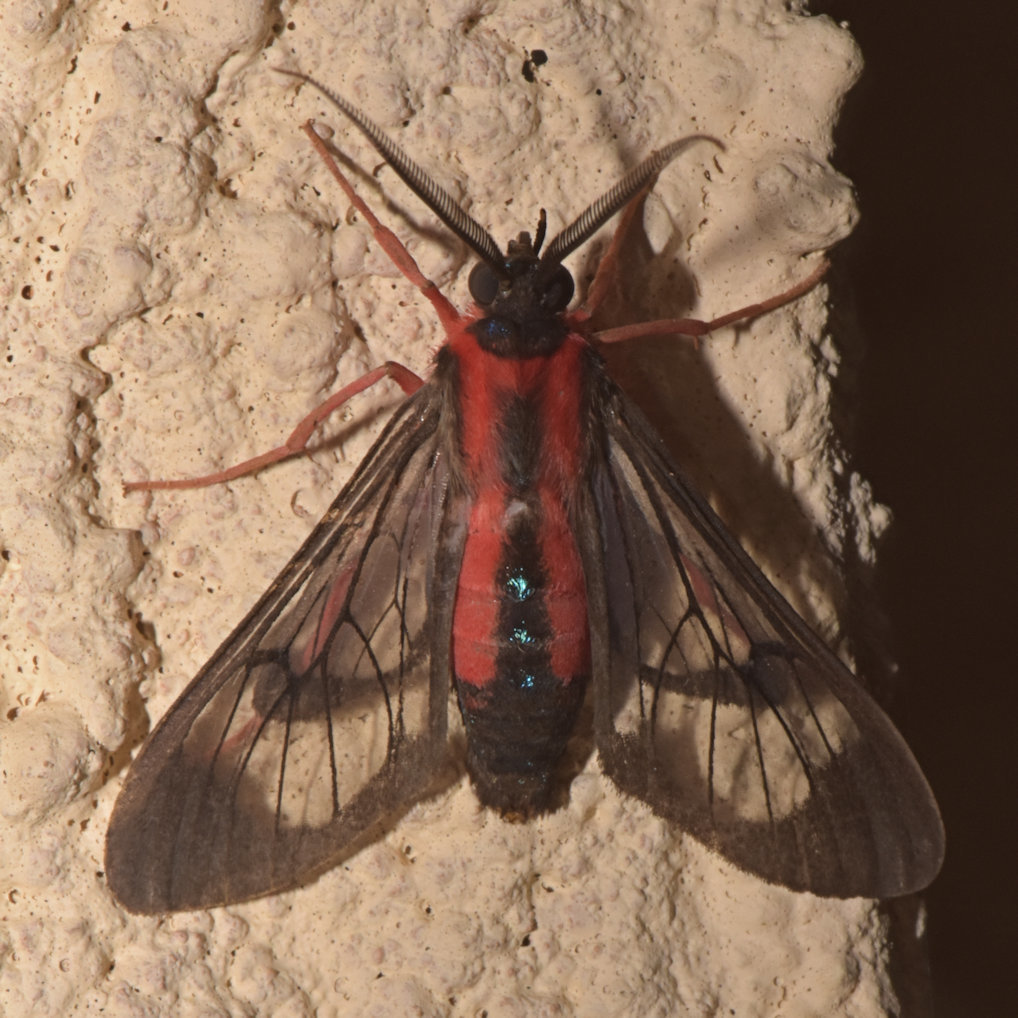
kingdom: Animalia
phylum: Arthropoda
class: Insecta
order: Lepidoptera
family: Erebidae
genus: Cosmosoma
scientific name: Cosmosoma auge
